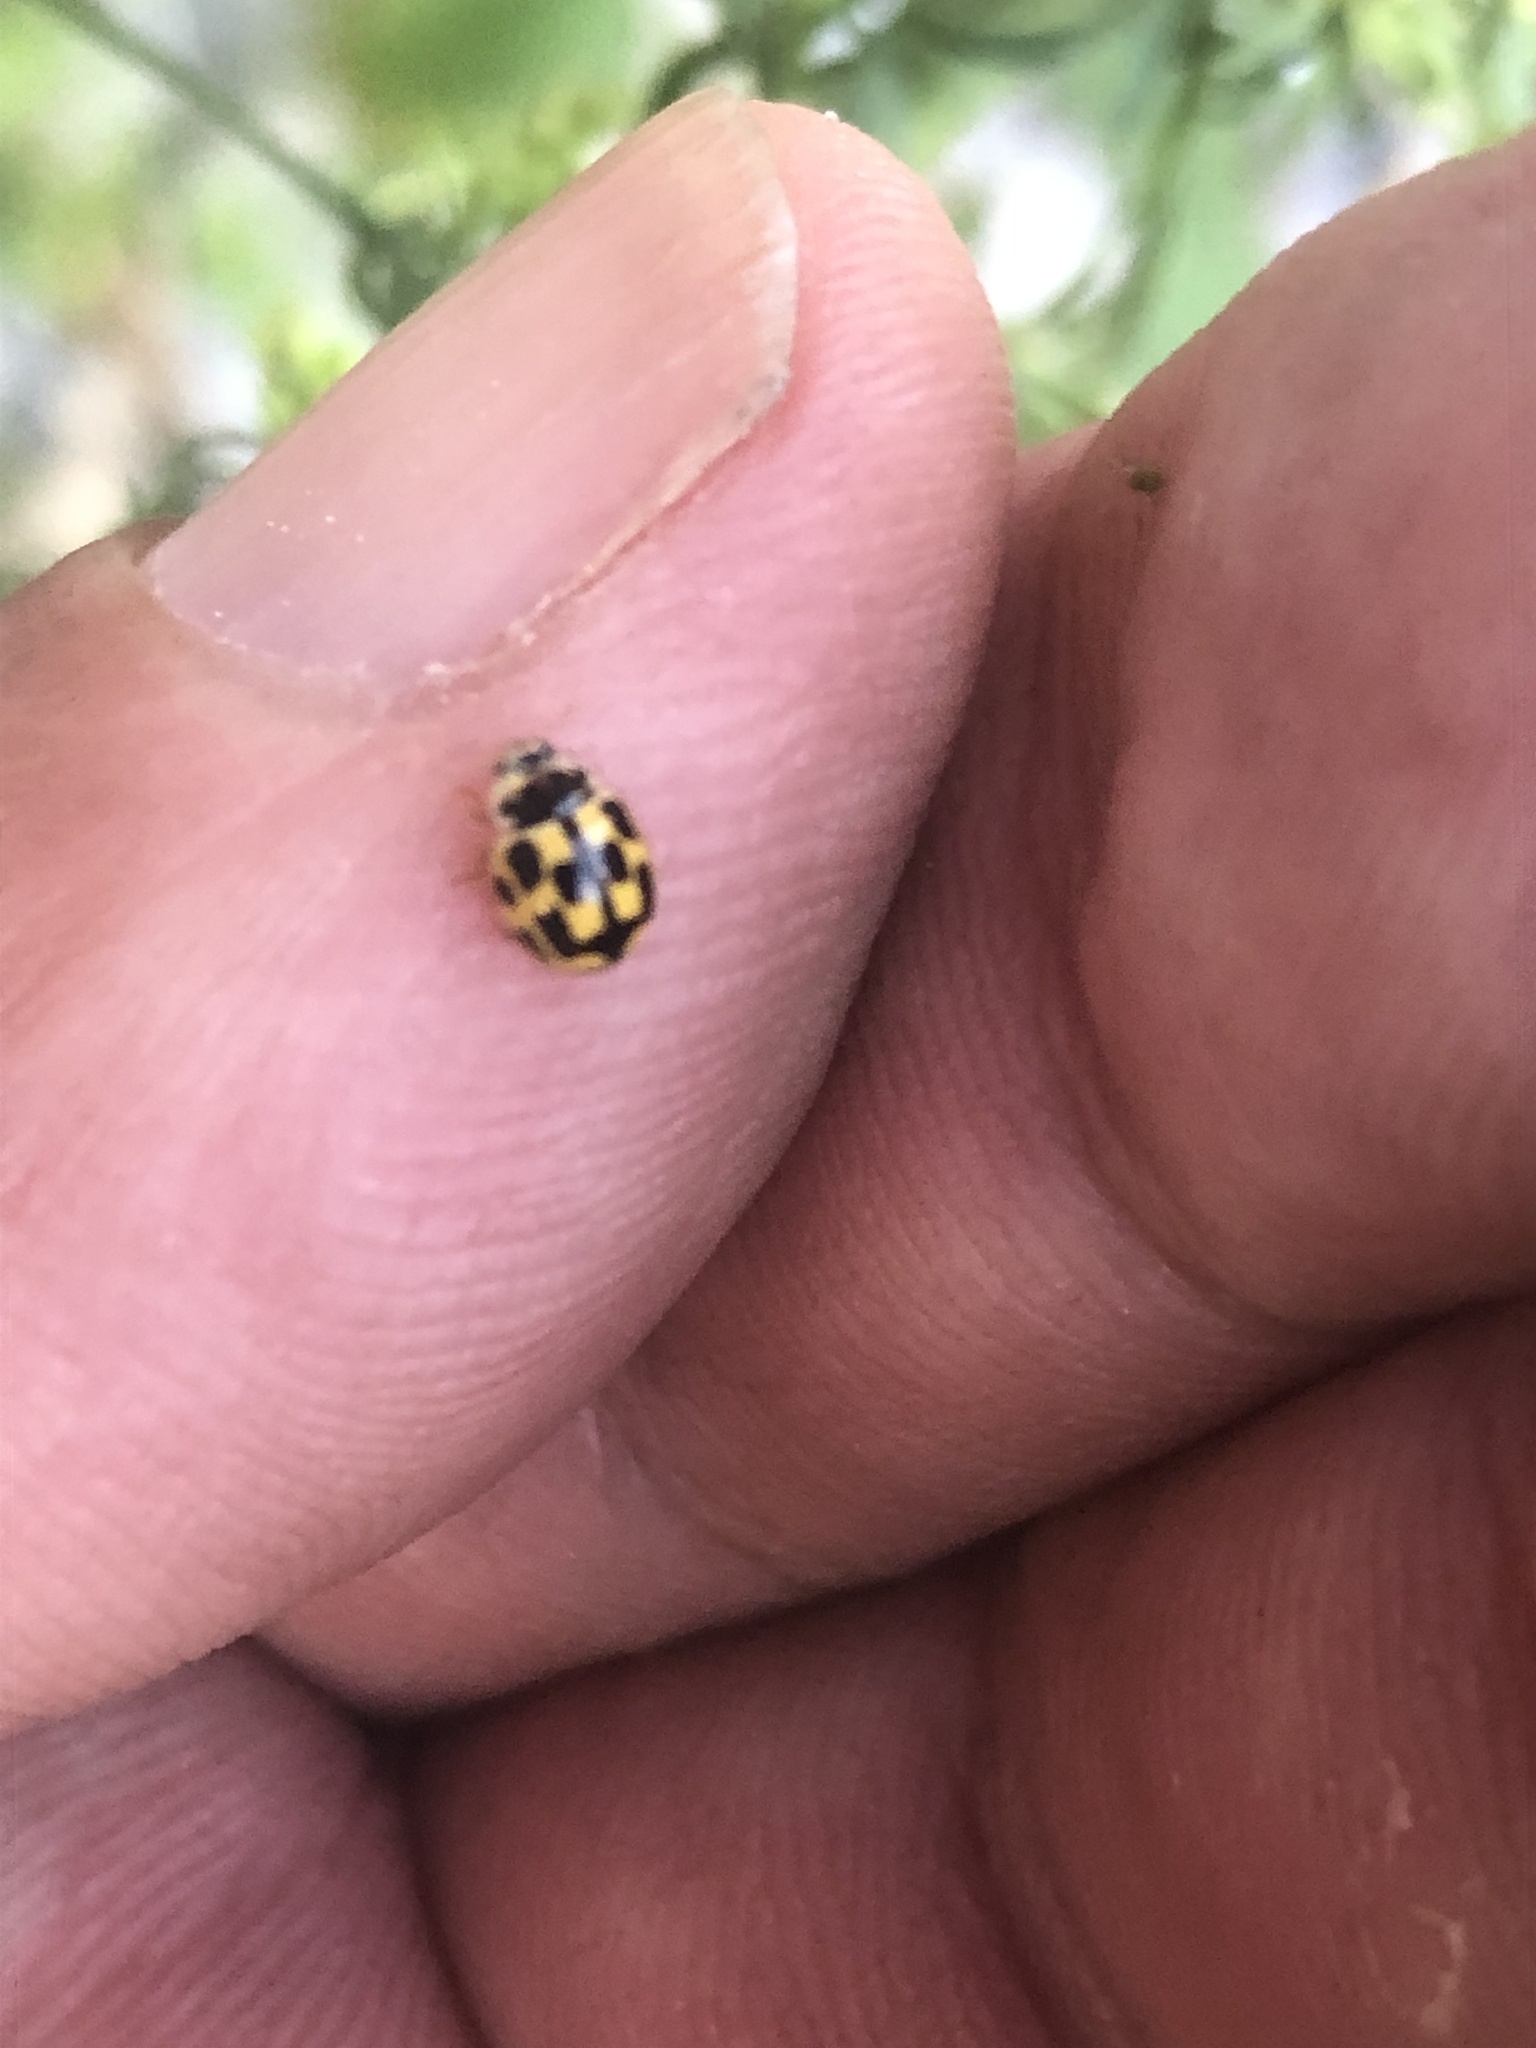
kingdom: Animalia
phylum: Arthropoda
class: Insecta
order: Coleoptera
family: Coccinellidae
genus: Propylaea
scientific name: Propylaea quatuordecimpunctata
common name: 14-spotted ladybird beetle
